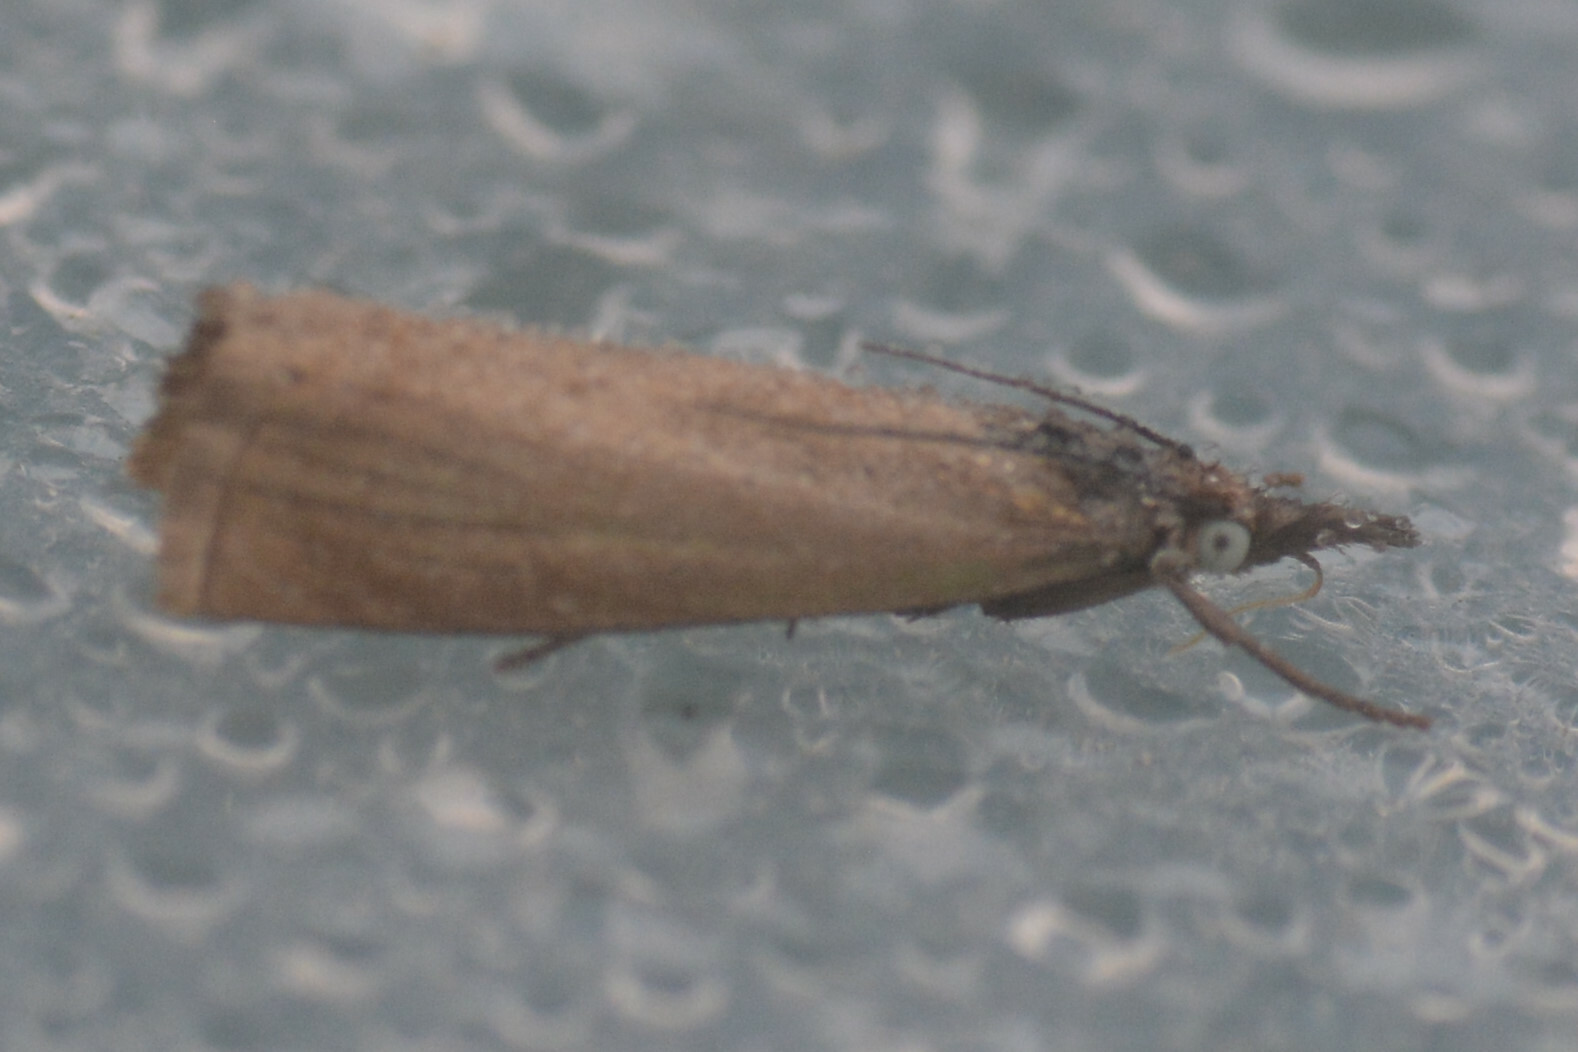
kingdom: Animalia
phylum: Arthropoda
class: Insecta
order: Lepidoptera
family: Crambidae
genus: Chrysoteuchia
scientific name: Chrysoteuchia culmella
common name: Garden grass-veneer
